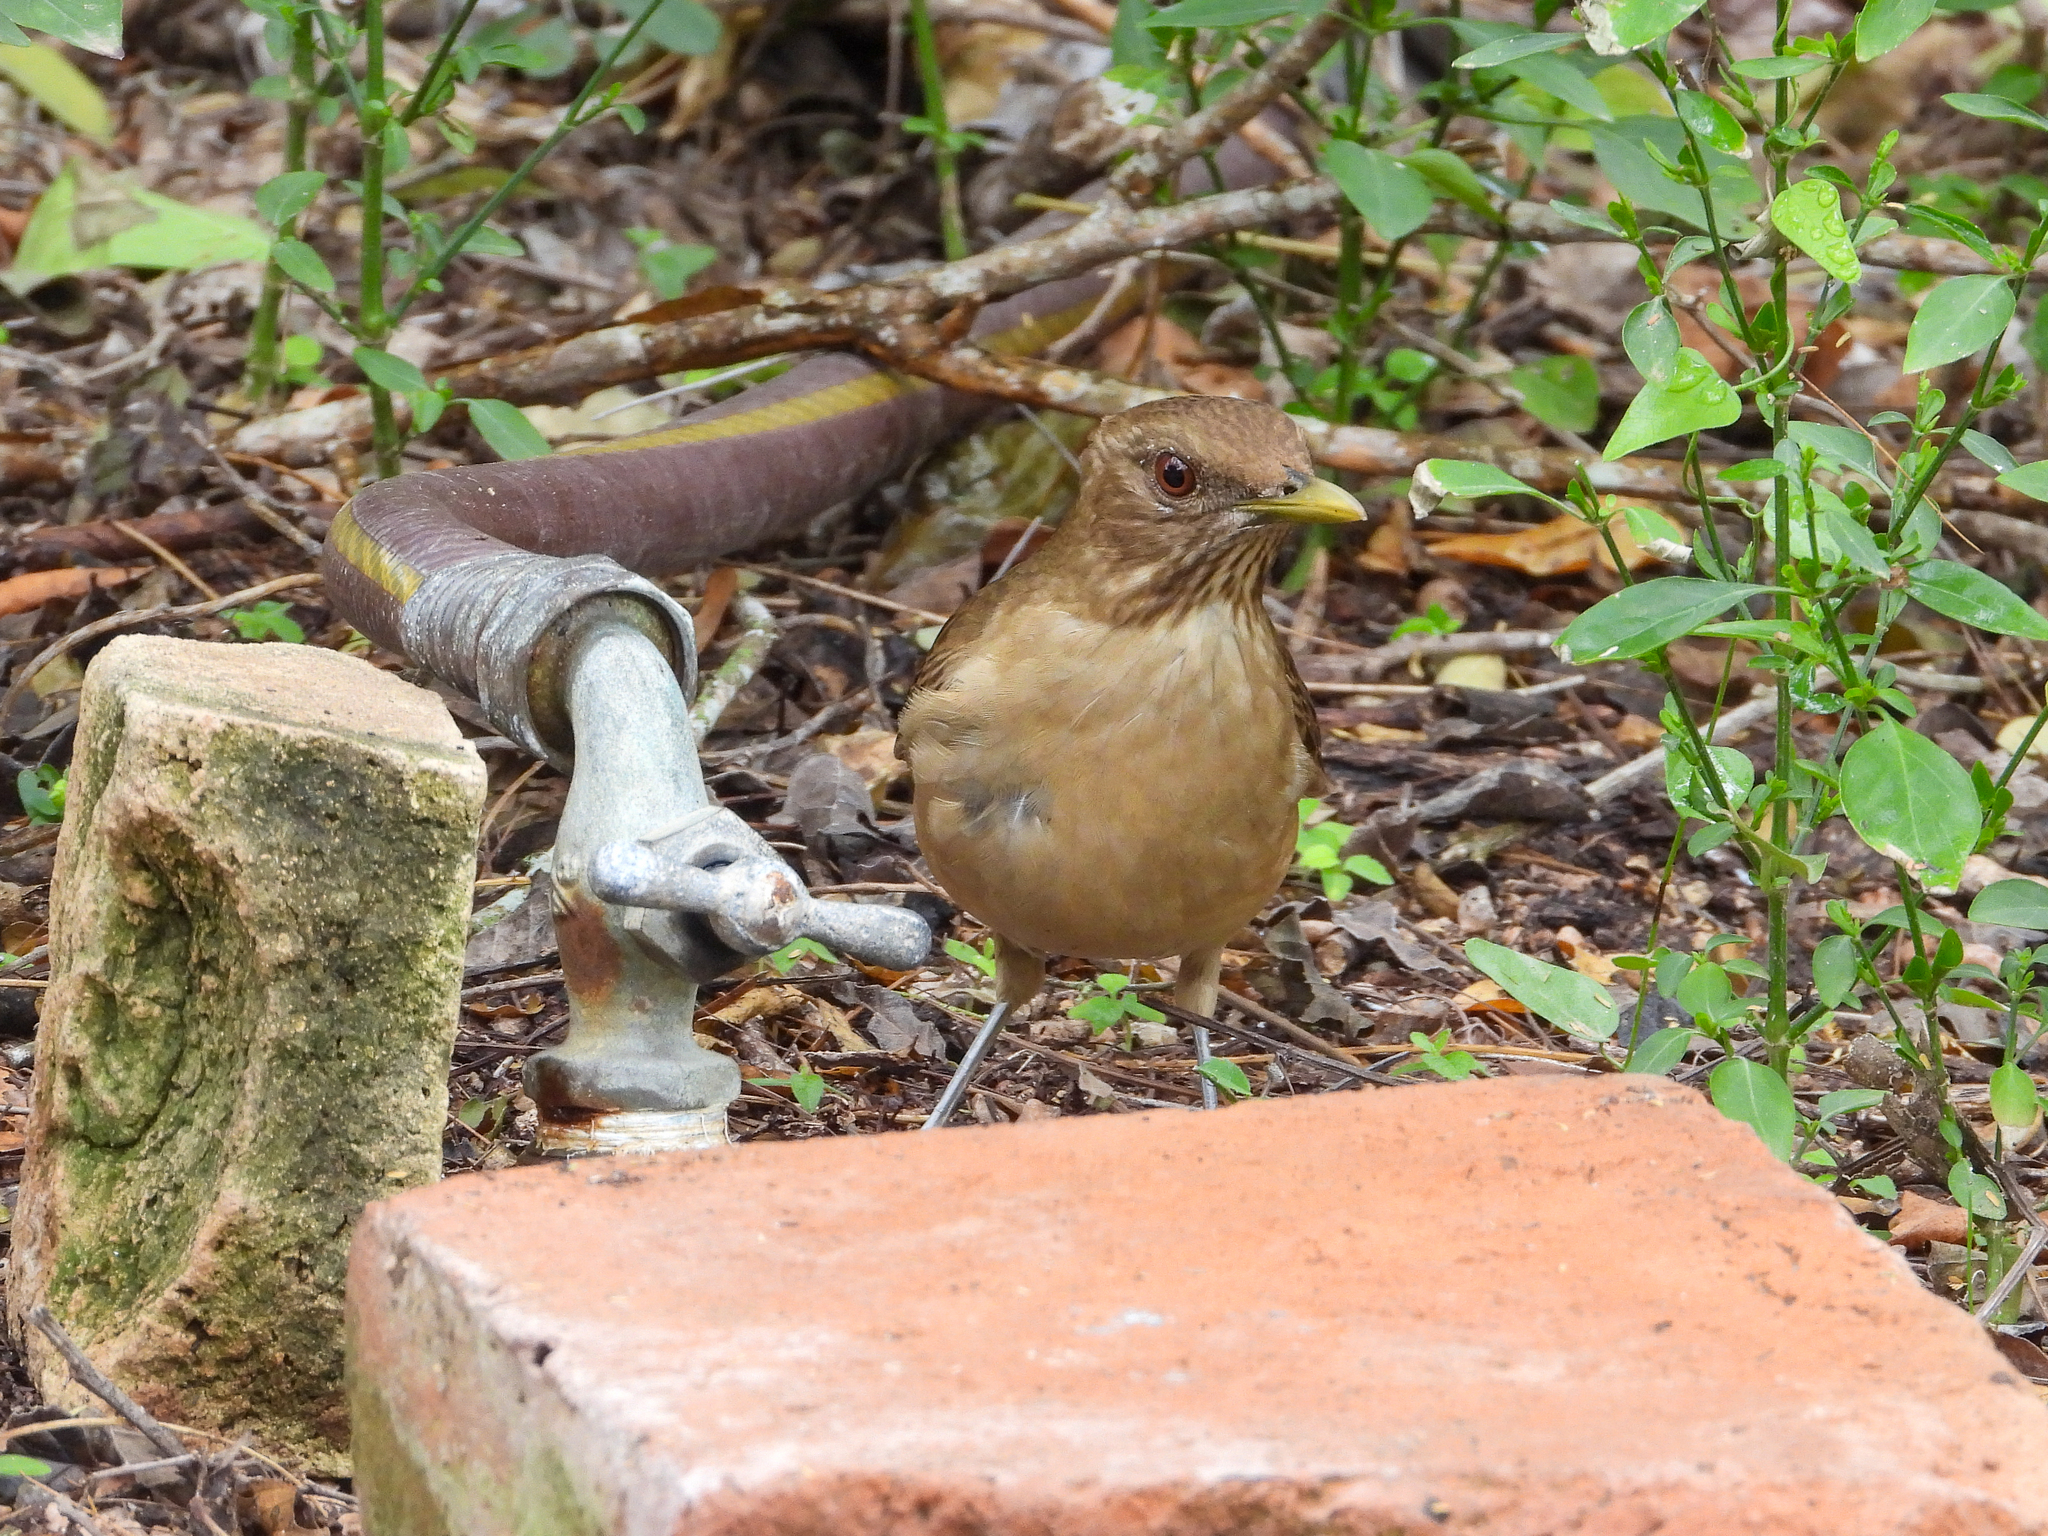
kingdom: Animalia
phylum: Chordata
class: Aves
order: Passeriformes
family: Turdidae
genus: Turdus
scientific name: Turdus grayi
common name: Clay-colored thrush
